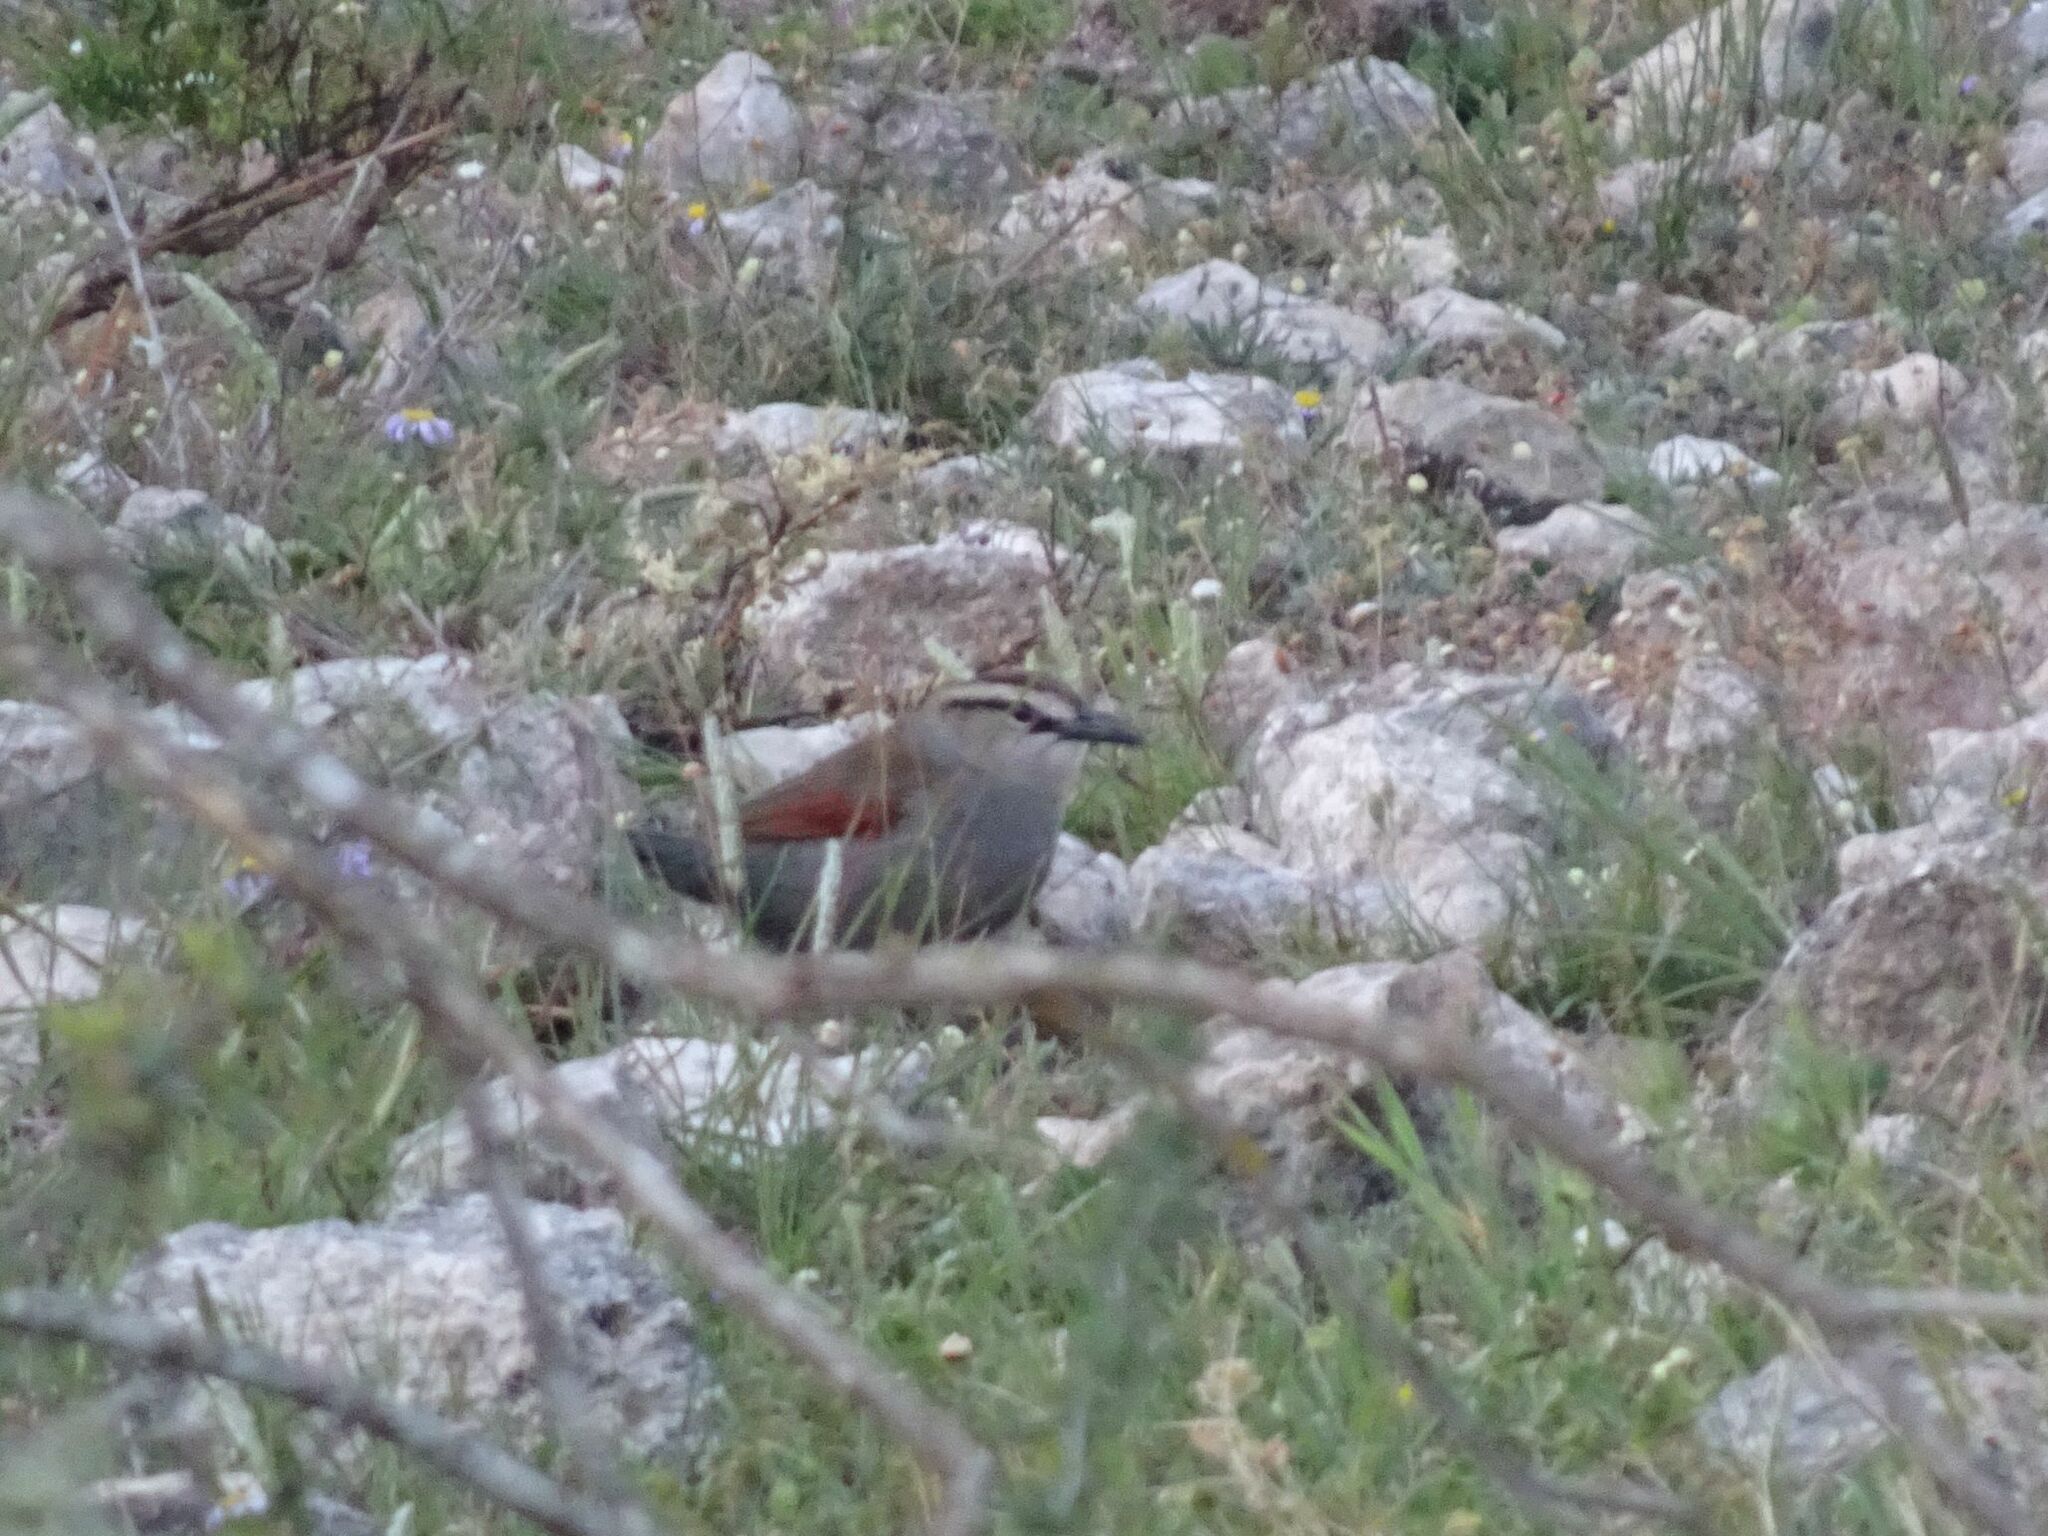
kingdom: Animalia
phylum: Chordata
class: Aves
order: Passeriformes
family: Malaconotidae
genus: Tchagra
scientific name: Tchagra tchagra
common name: Southern tchagra
